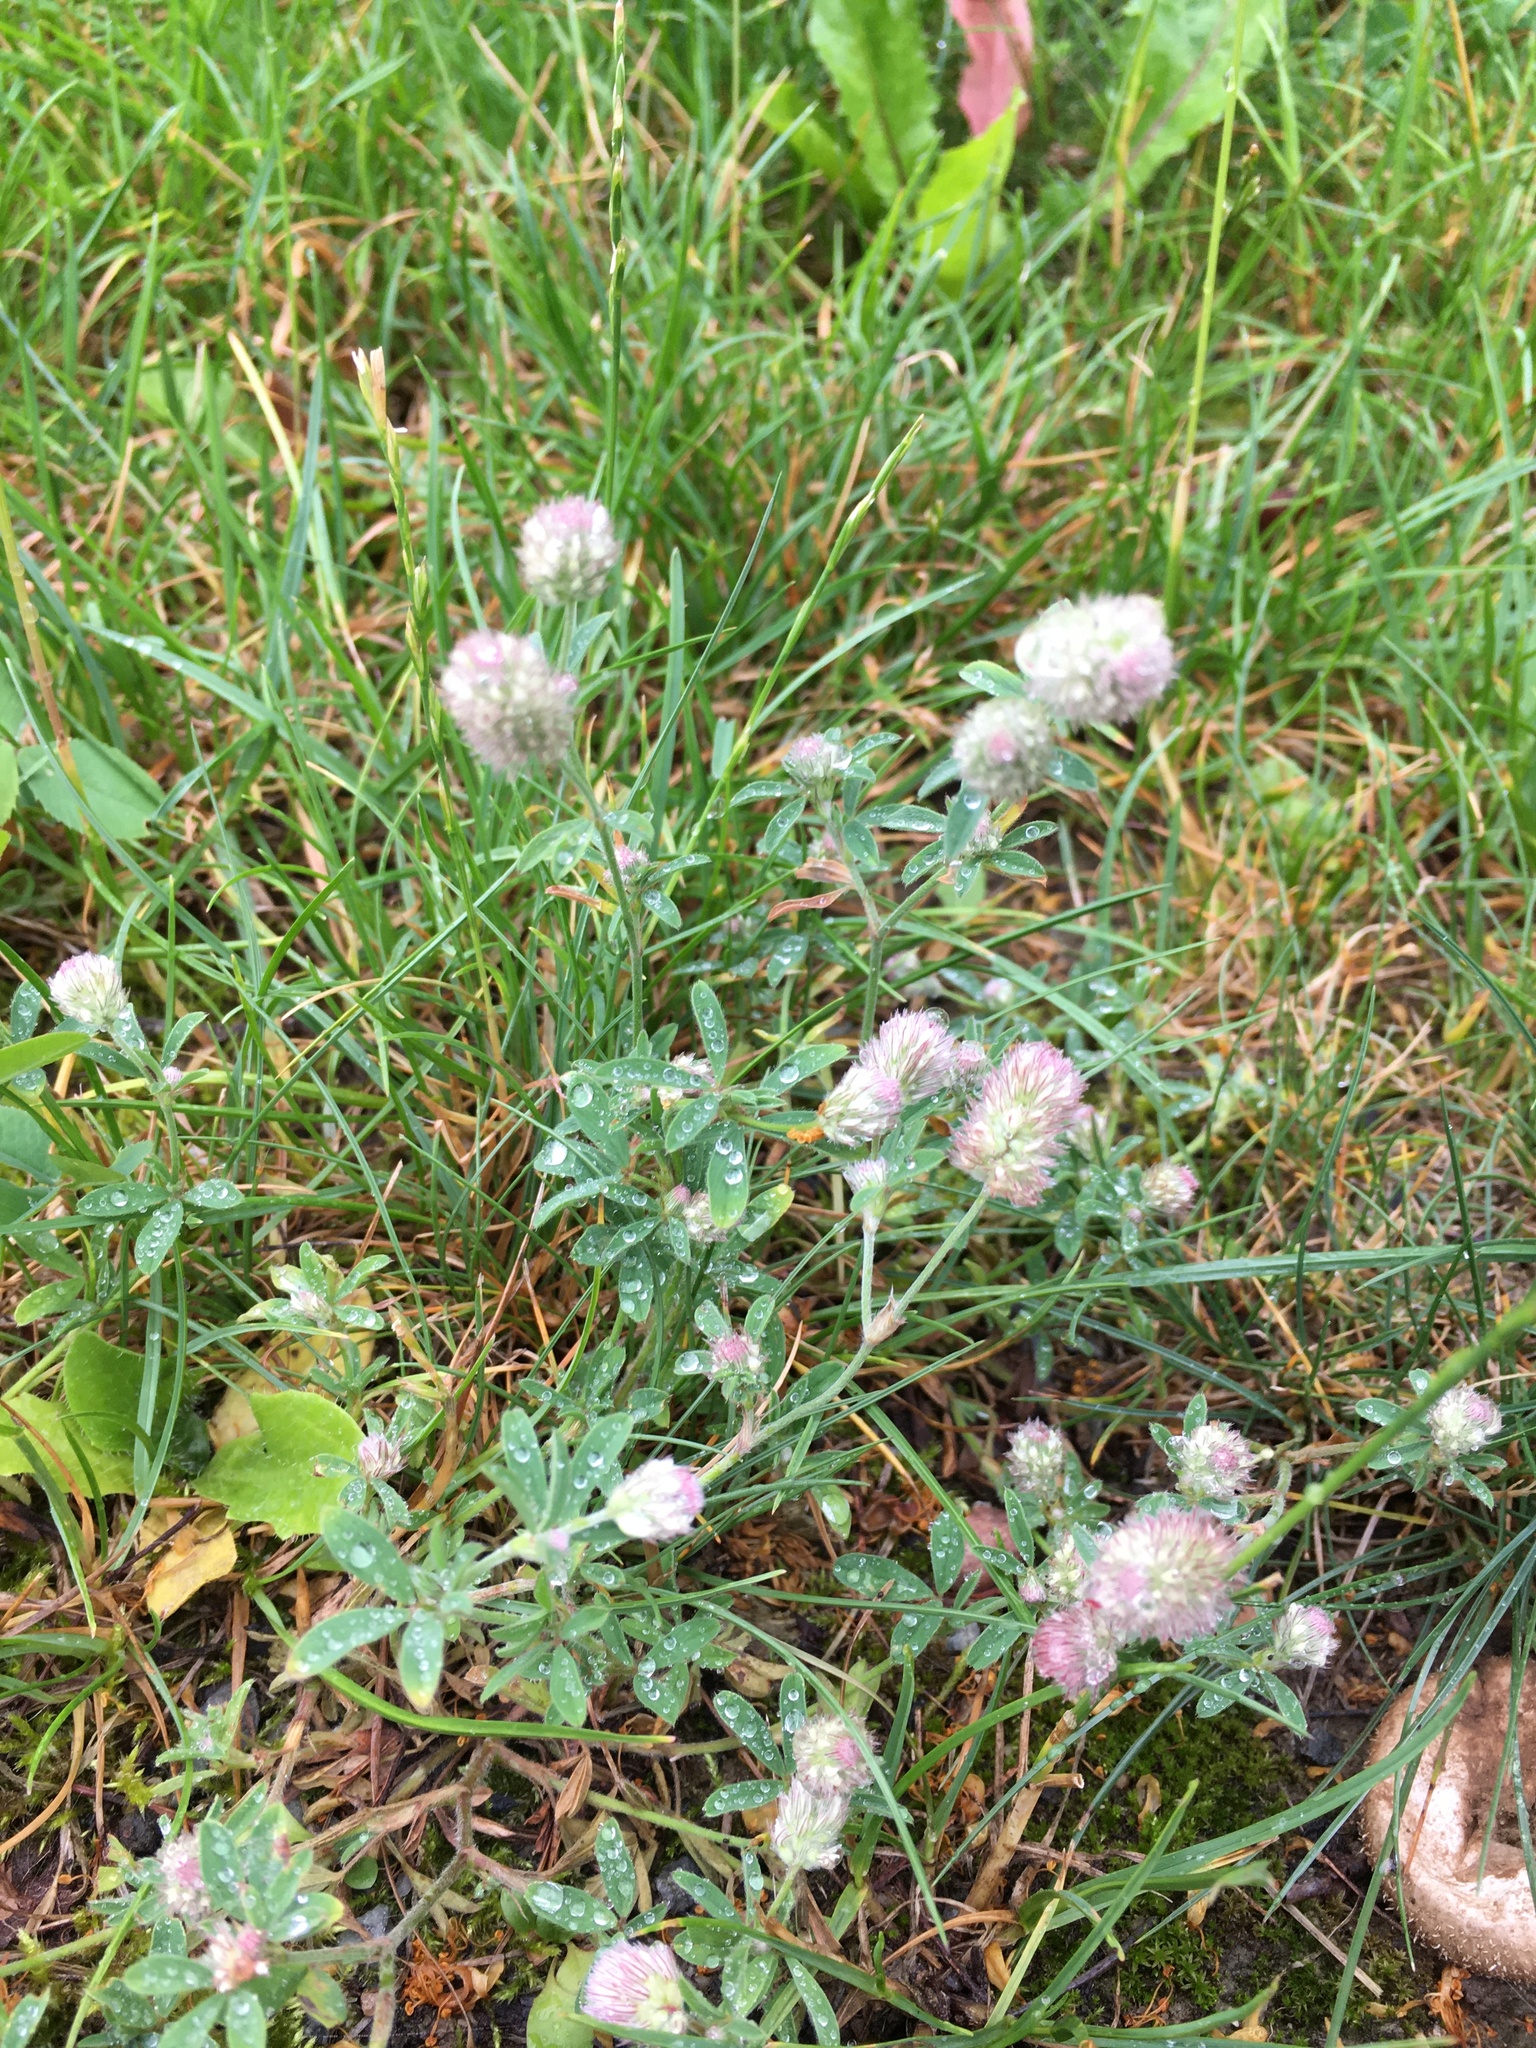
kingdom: Plantae
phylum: Tracheophyta
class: Magnoliopsida
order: Fabales
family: Fabaceae
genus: Trifolium
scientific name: Trifolium arvense
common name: Hare's-foot clover
